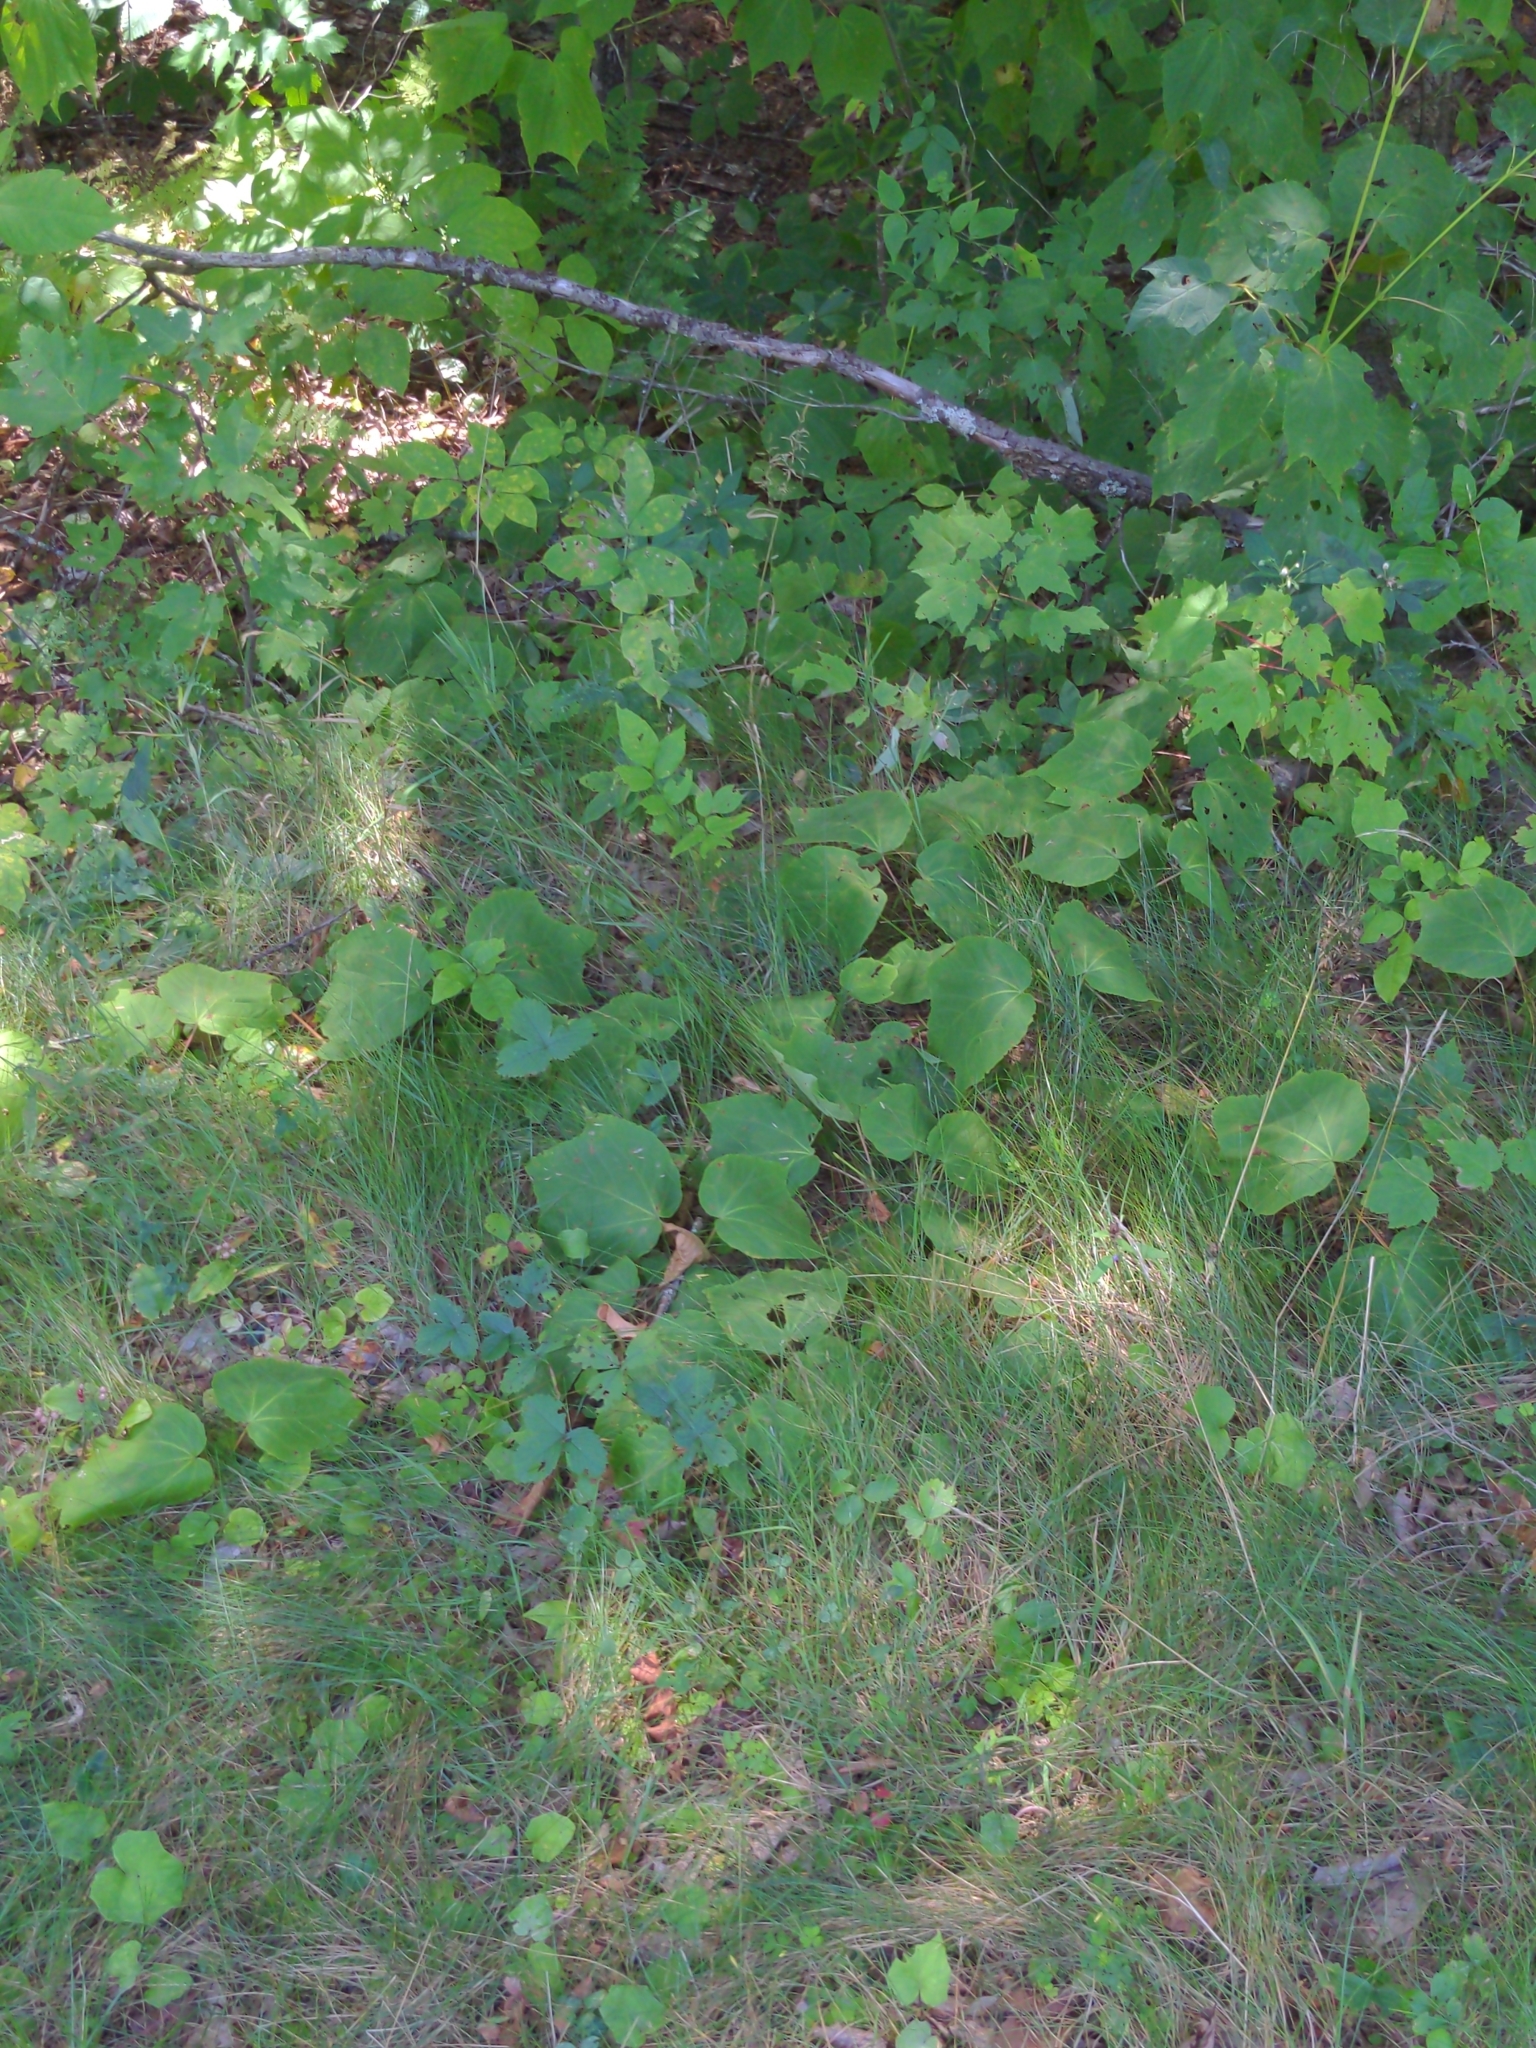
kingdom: Plantae
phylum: Tracheophyta
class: Magnoliopsida
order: Sapindales
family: Sapindaceae
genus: Acer
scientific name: Acer pensylvanicum
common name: Moosewood
